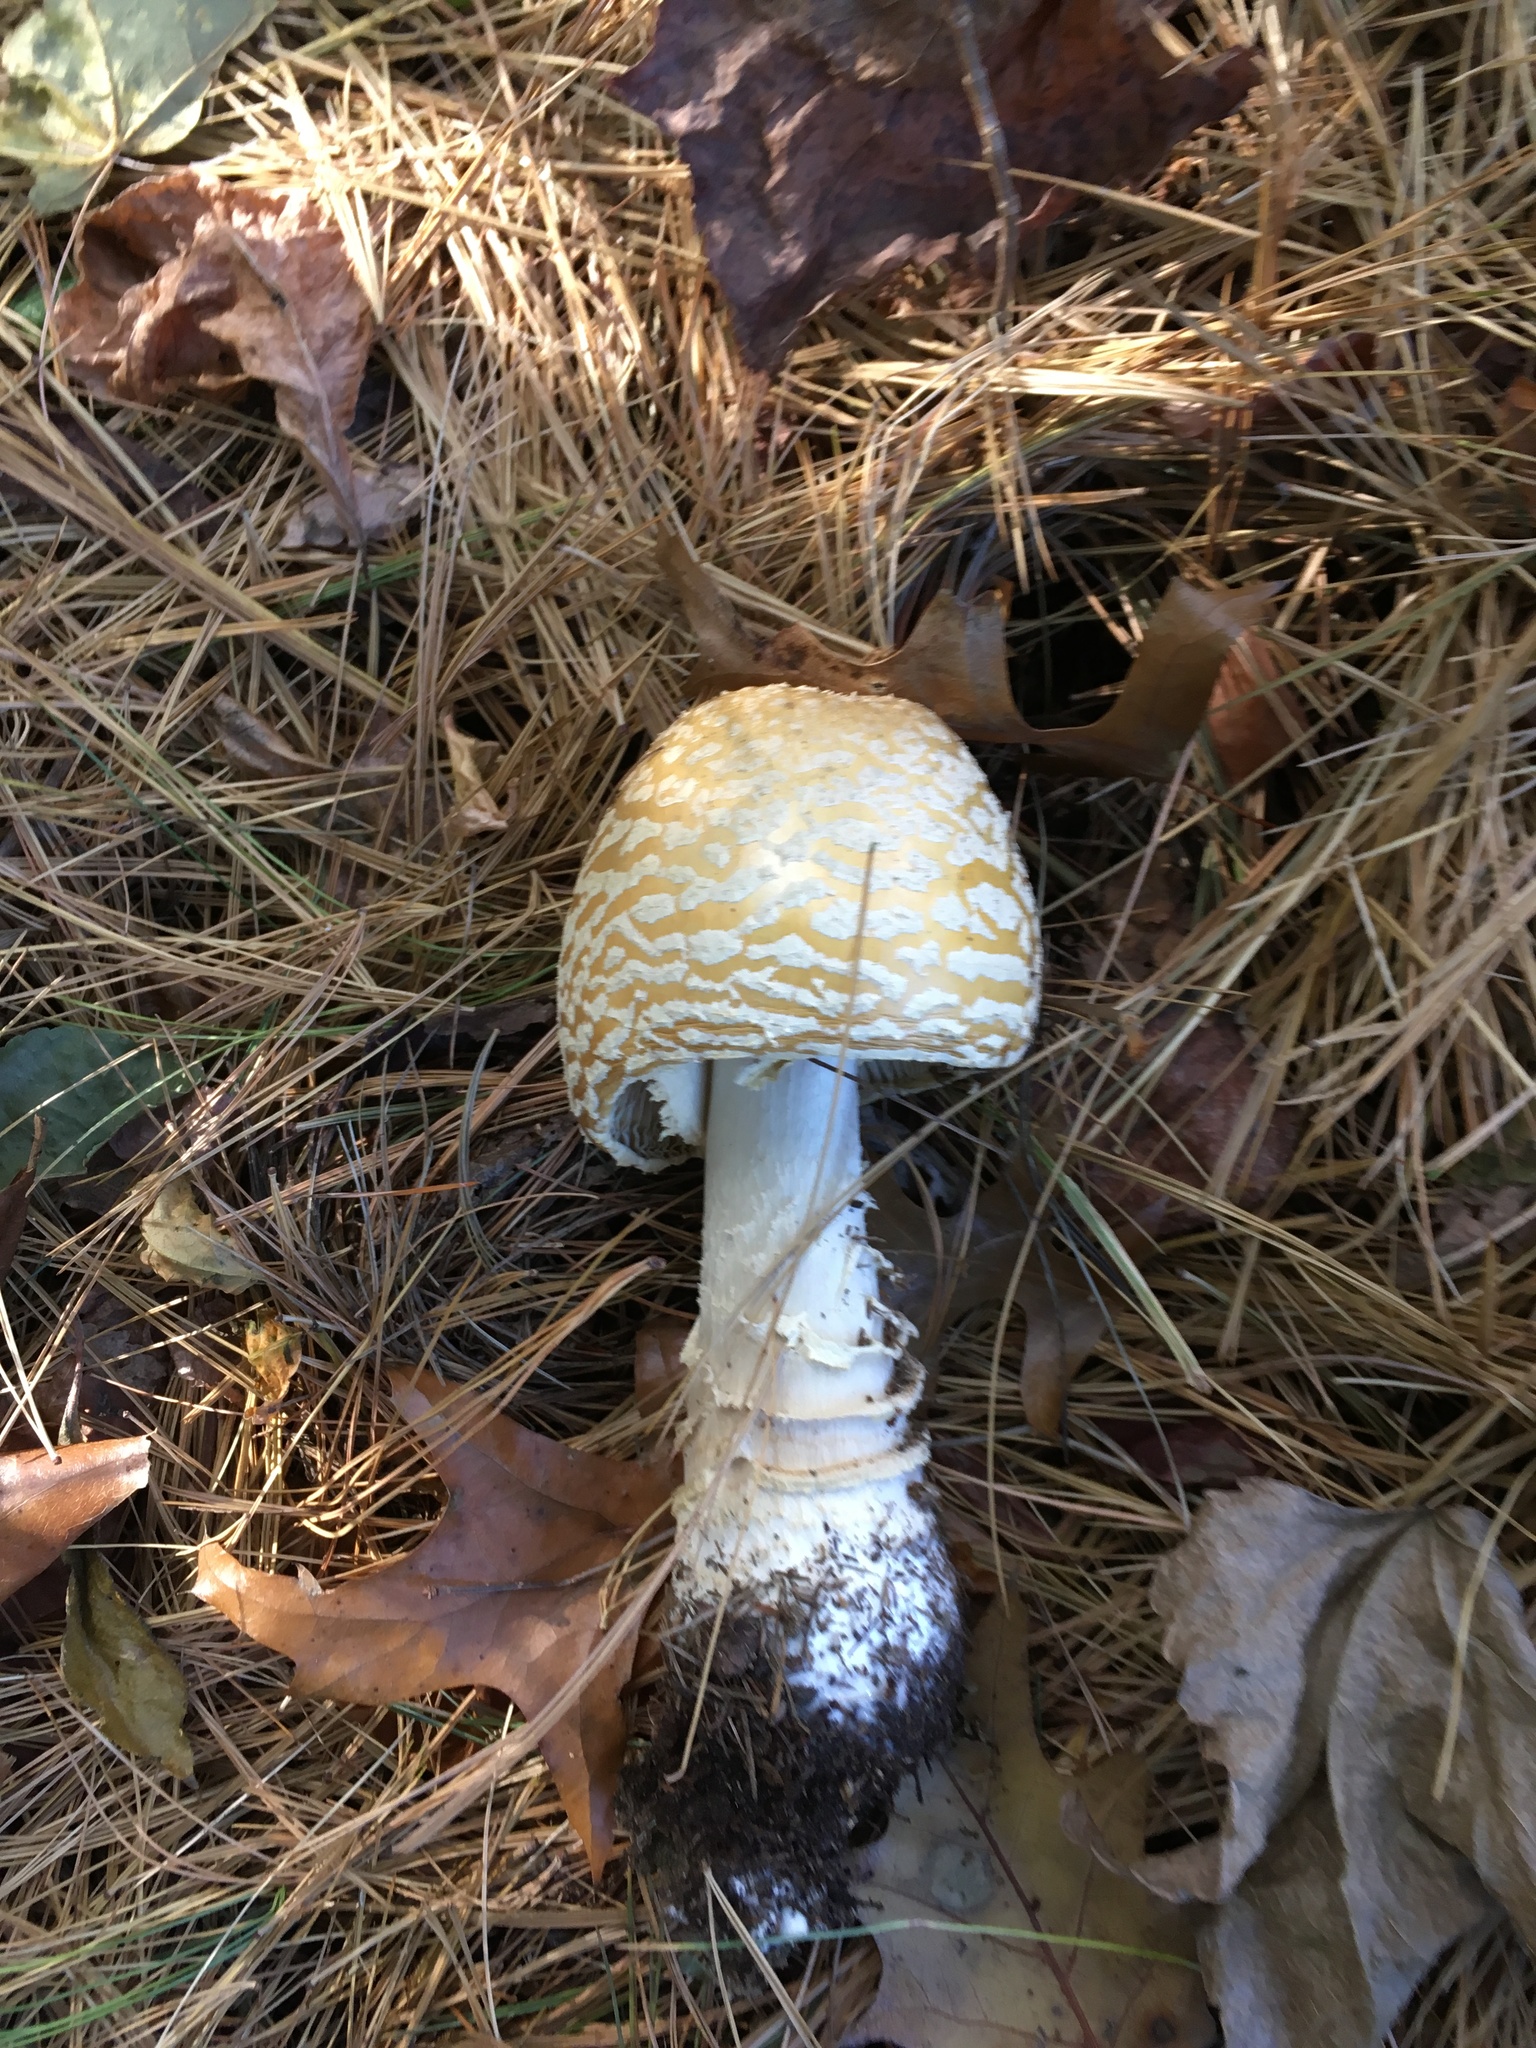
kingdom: Fungi
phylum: Basidiomycota
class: Agaricomycetes
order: Agaricales
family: Amanitaceae
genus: Amanita
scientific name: Amanita muscaria
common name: Fly agaric
